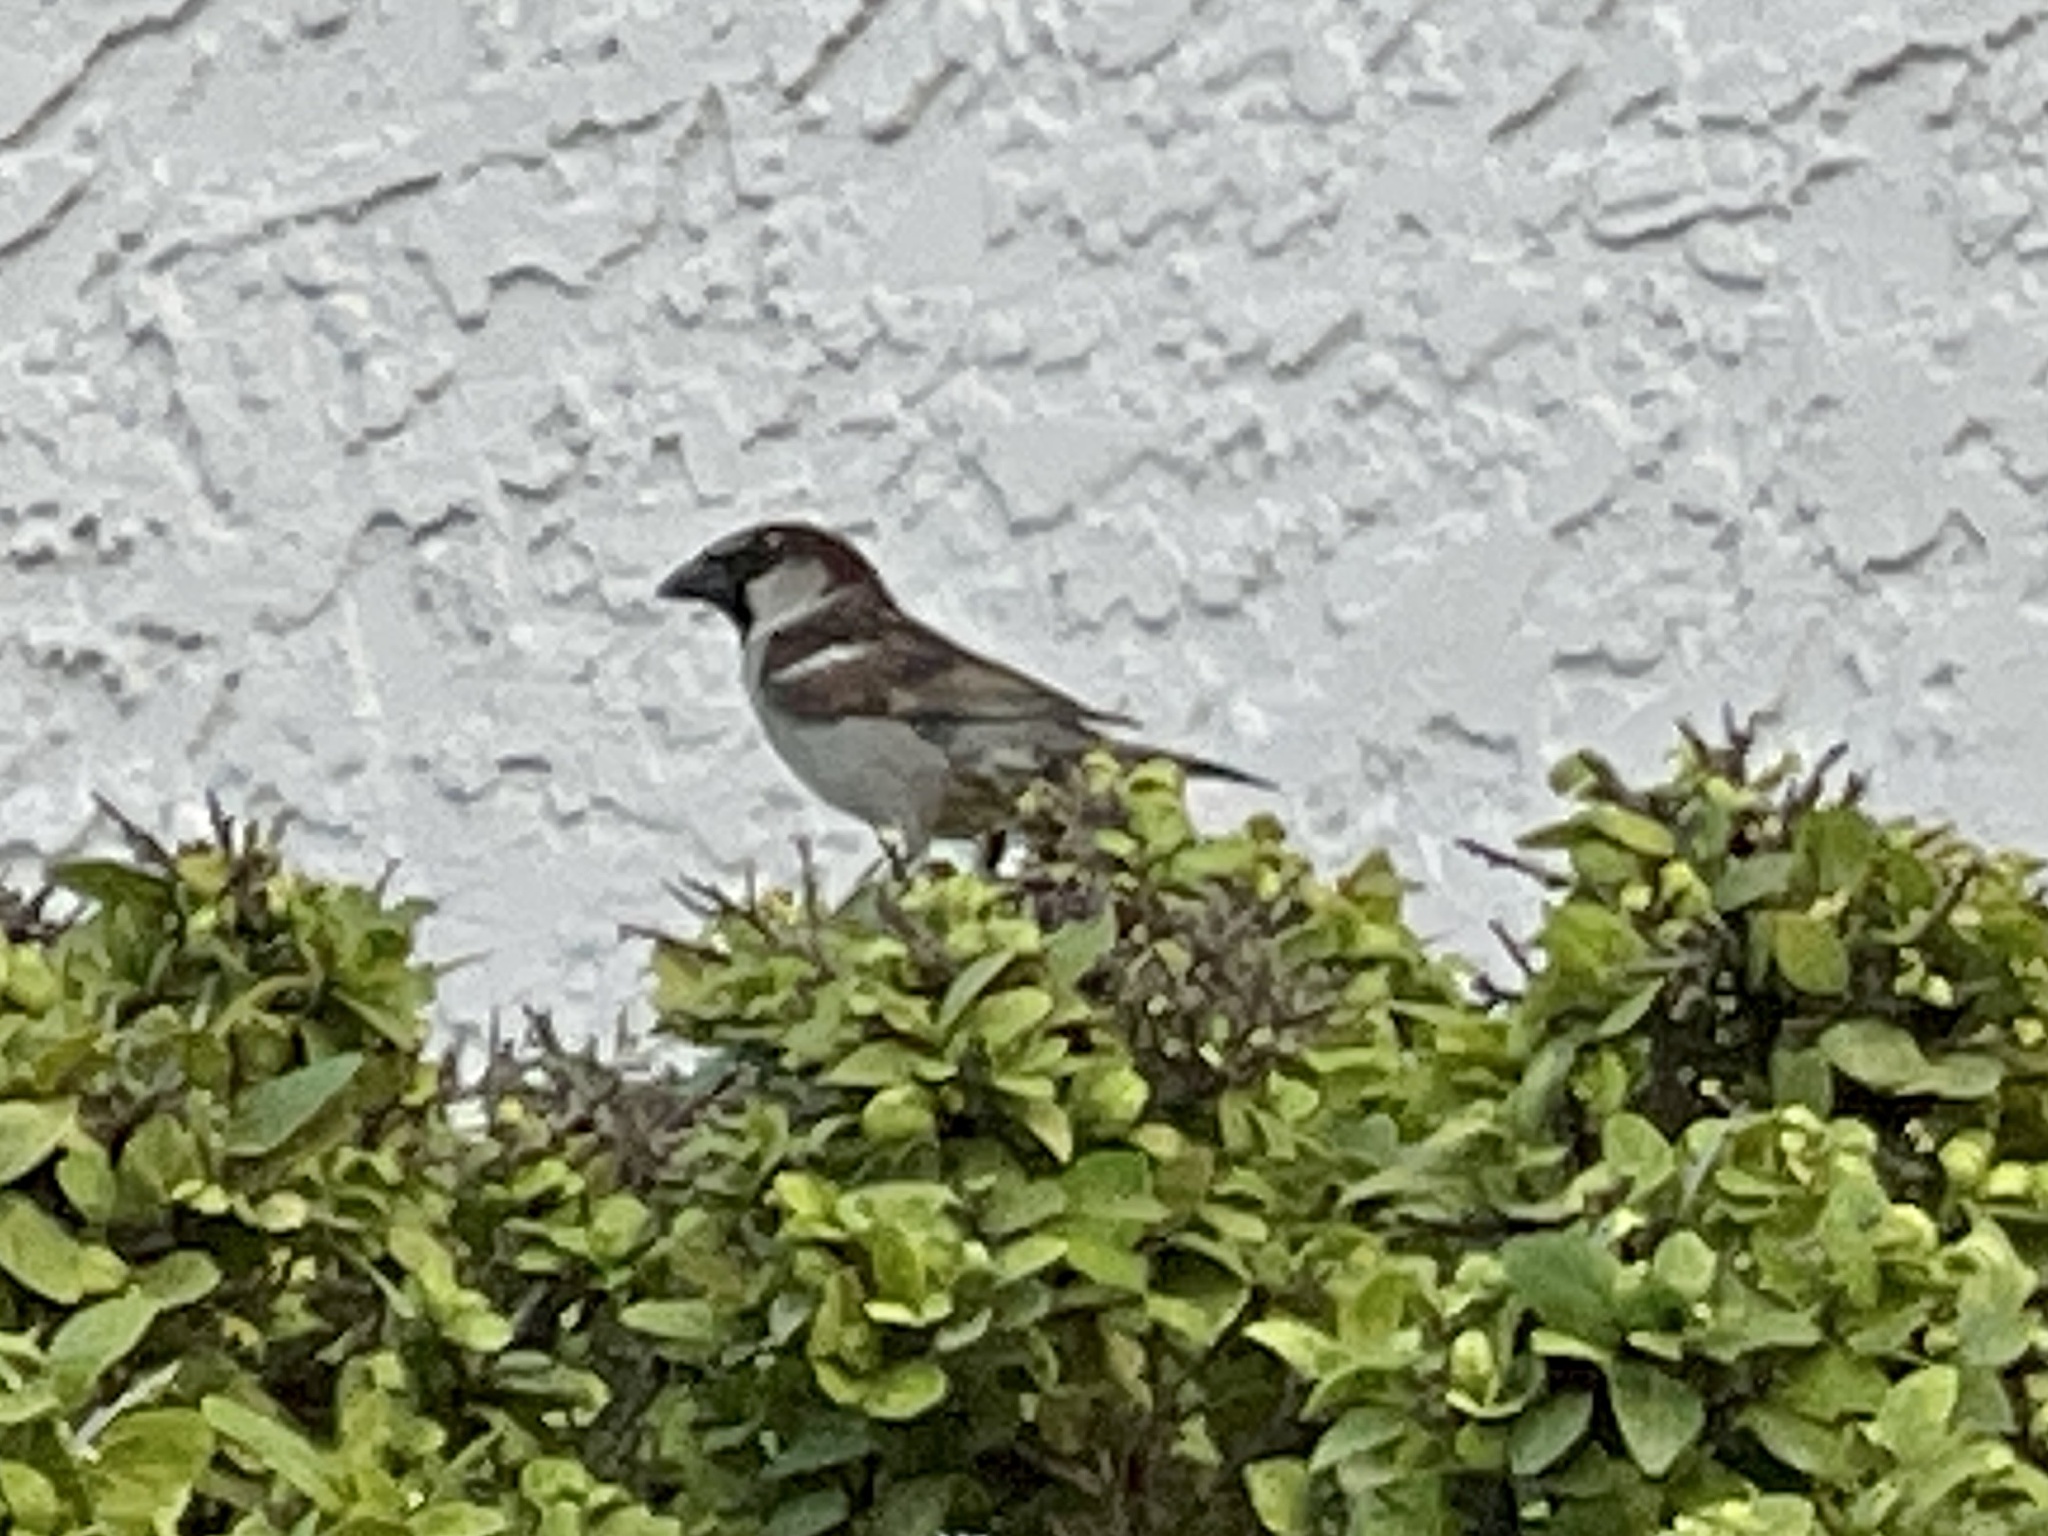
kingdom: Animalia
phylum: Chordata
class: Aves
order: Passeriformes
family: Passeridae
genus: Passer
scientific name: Passer domesticus
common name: House sparrow
